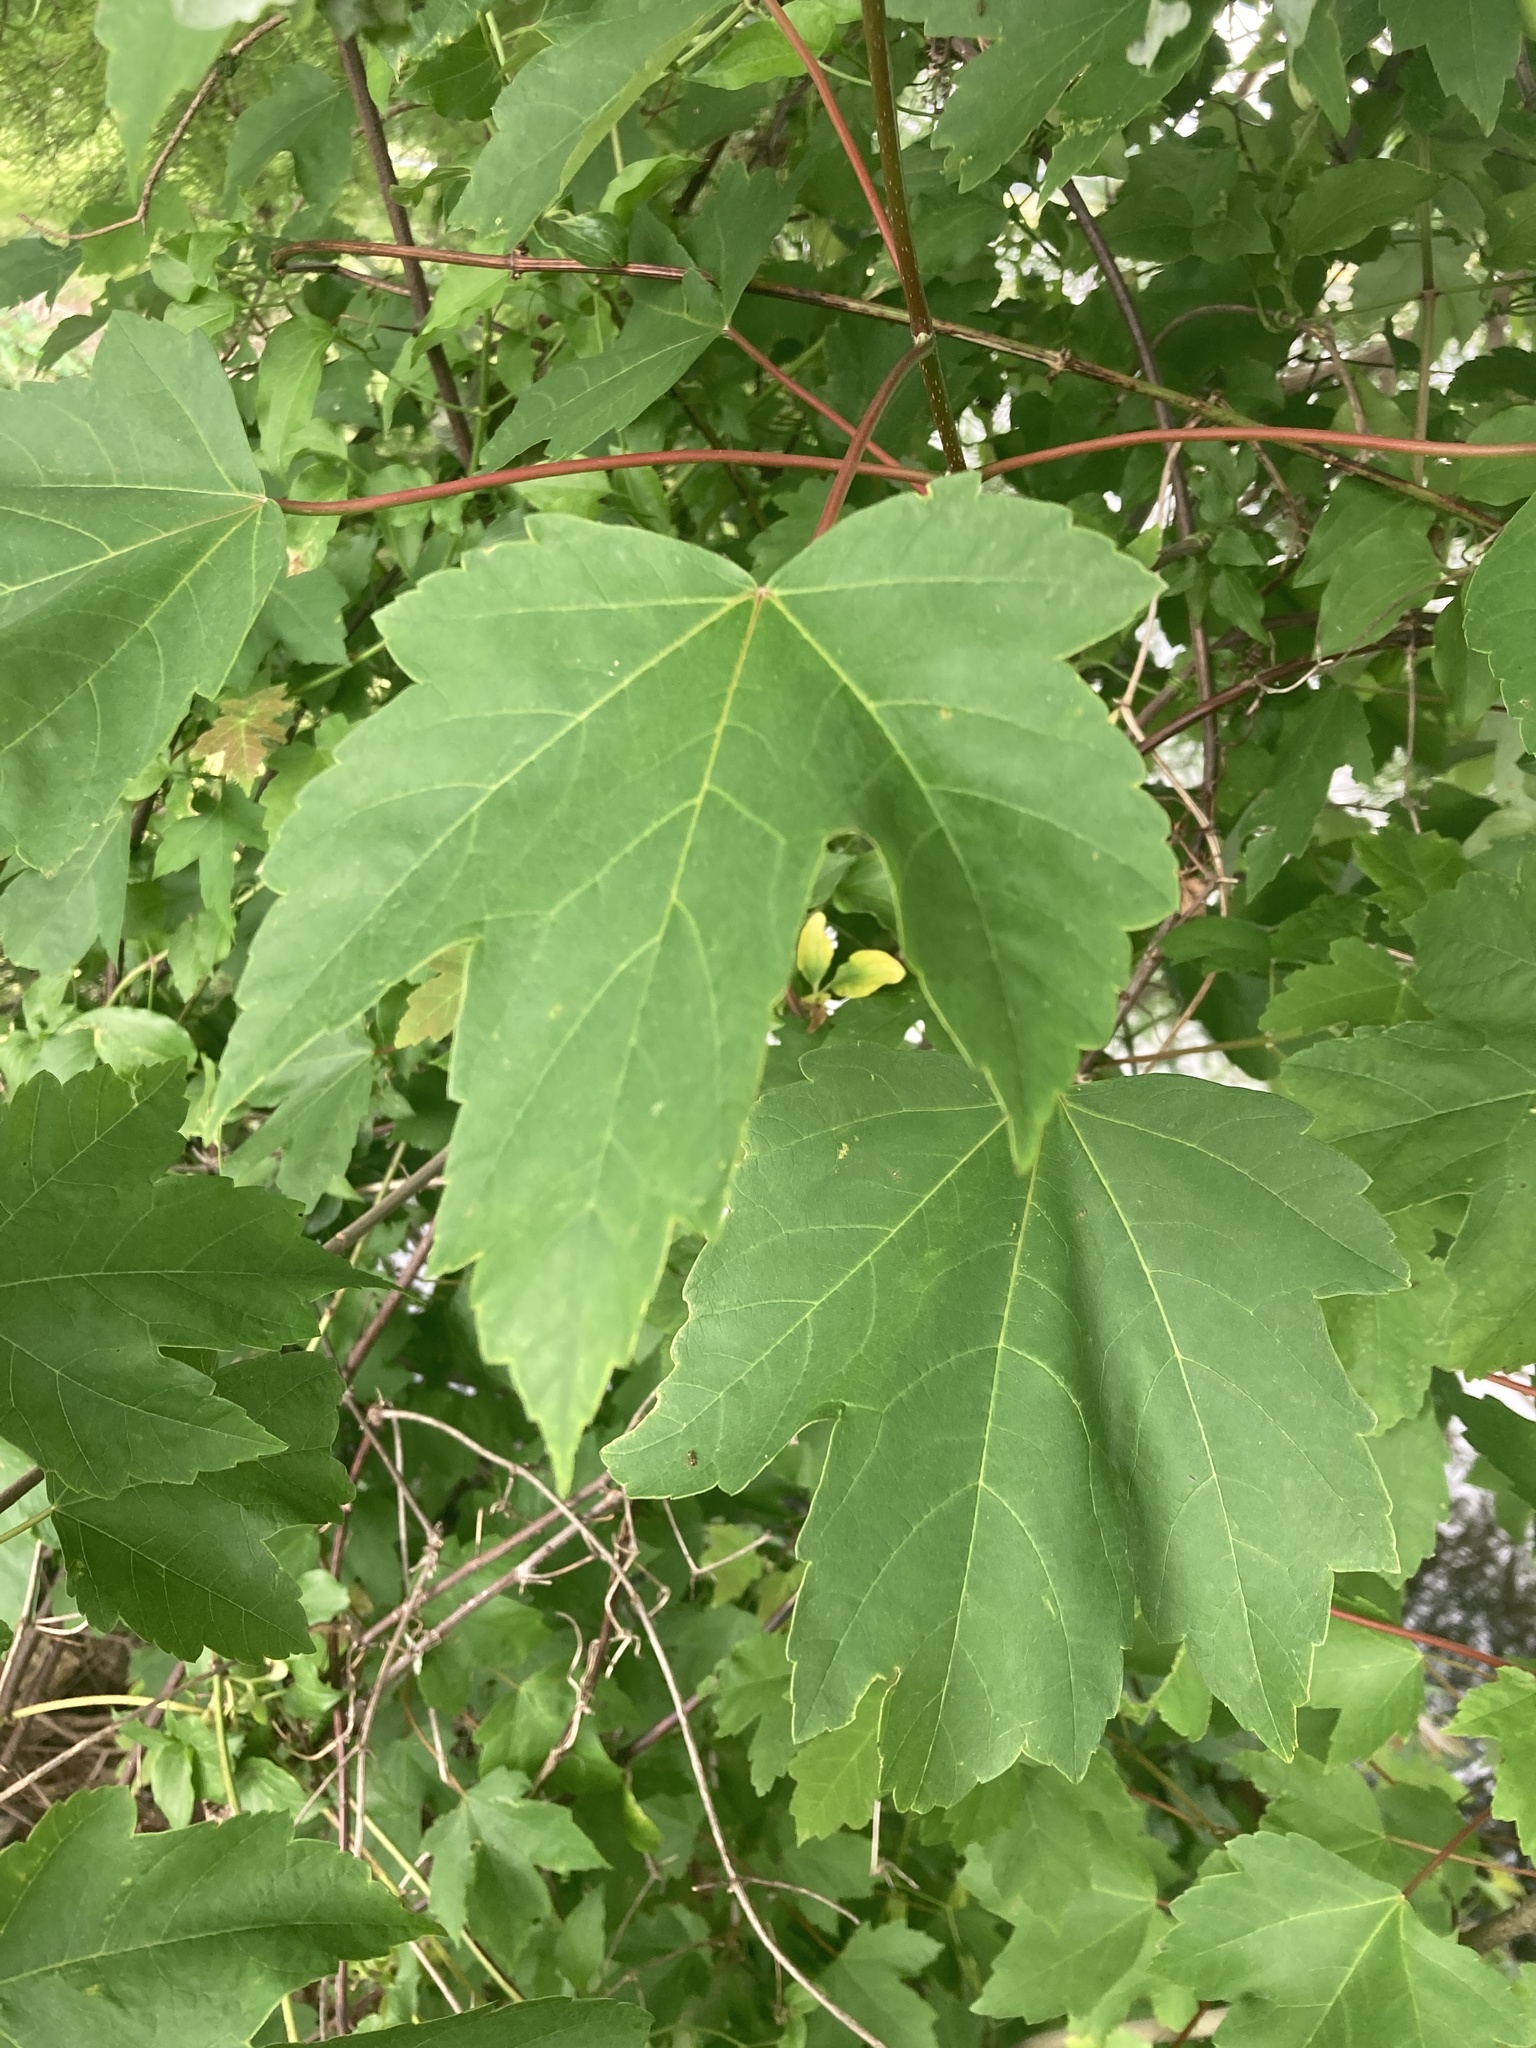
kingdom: Plantae
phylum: Tracheophyta
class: Magnoliopsida
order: Sapindales
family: Sapindaceae
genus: Acer
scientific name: Acer rubrum
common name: Red maple
